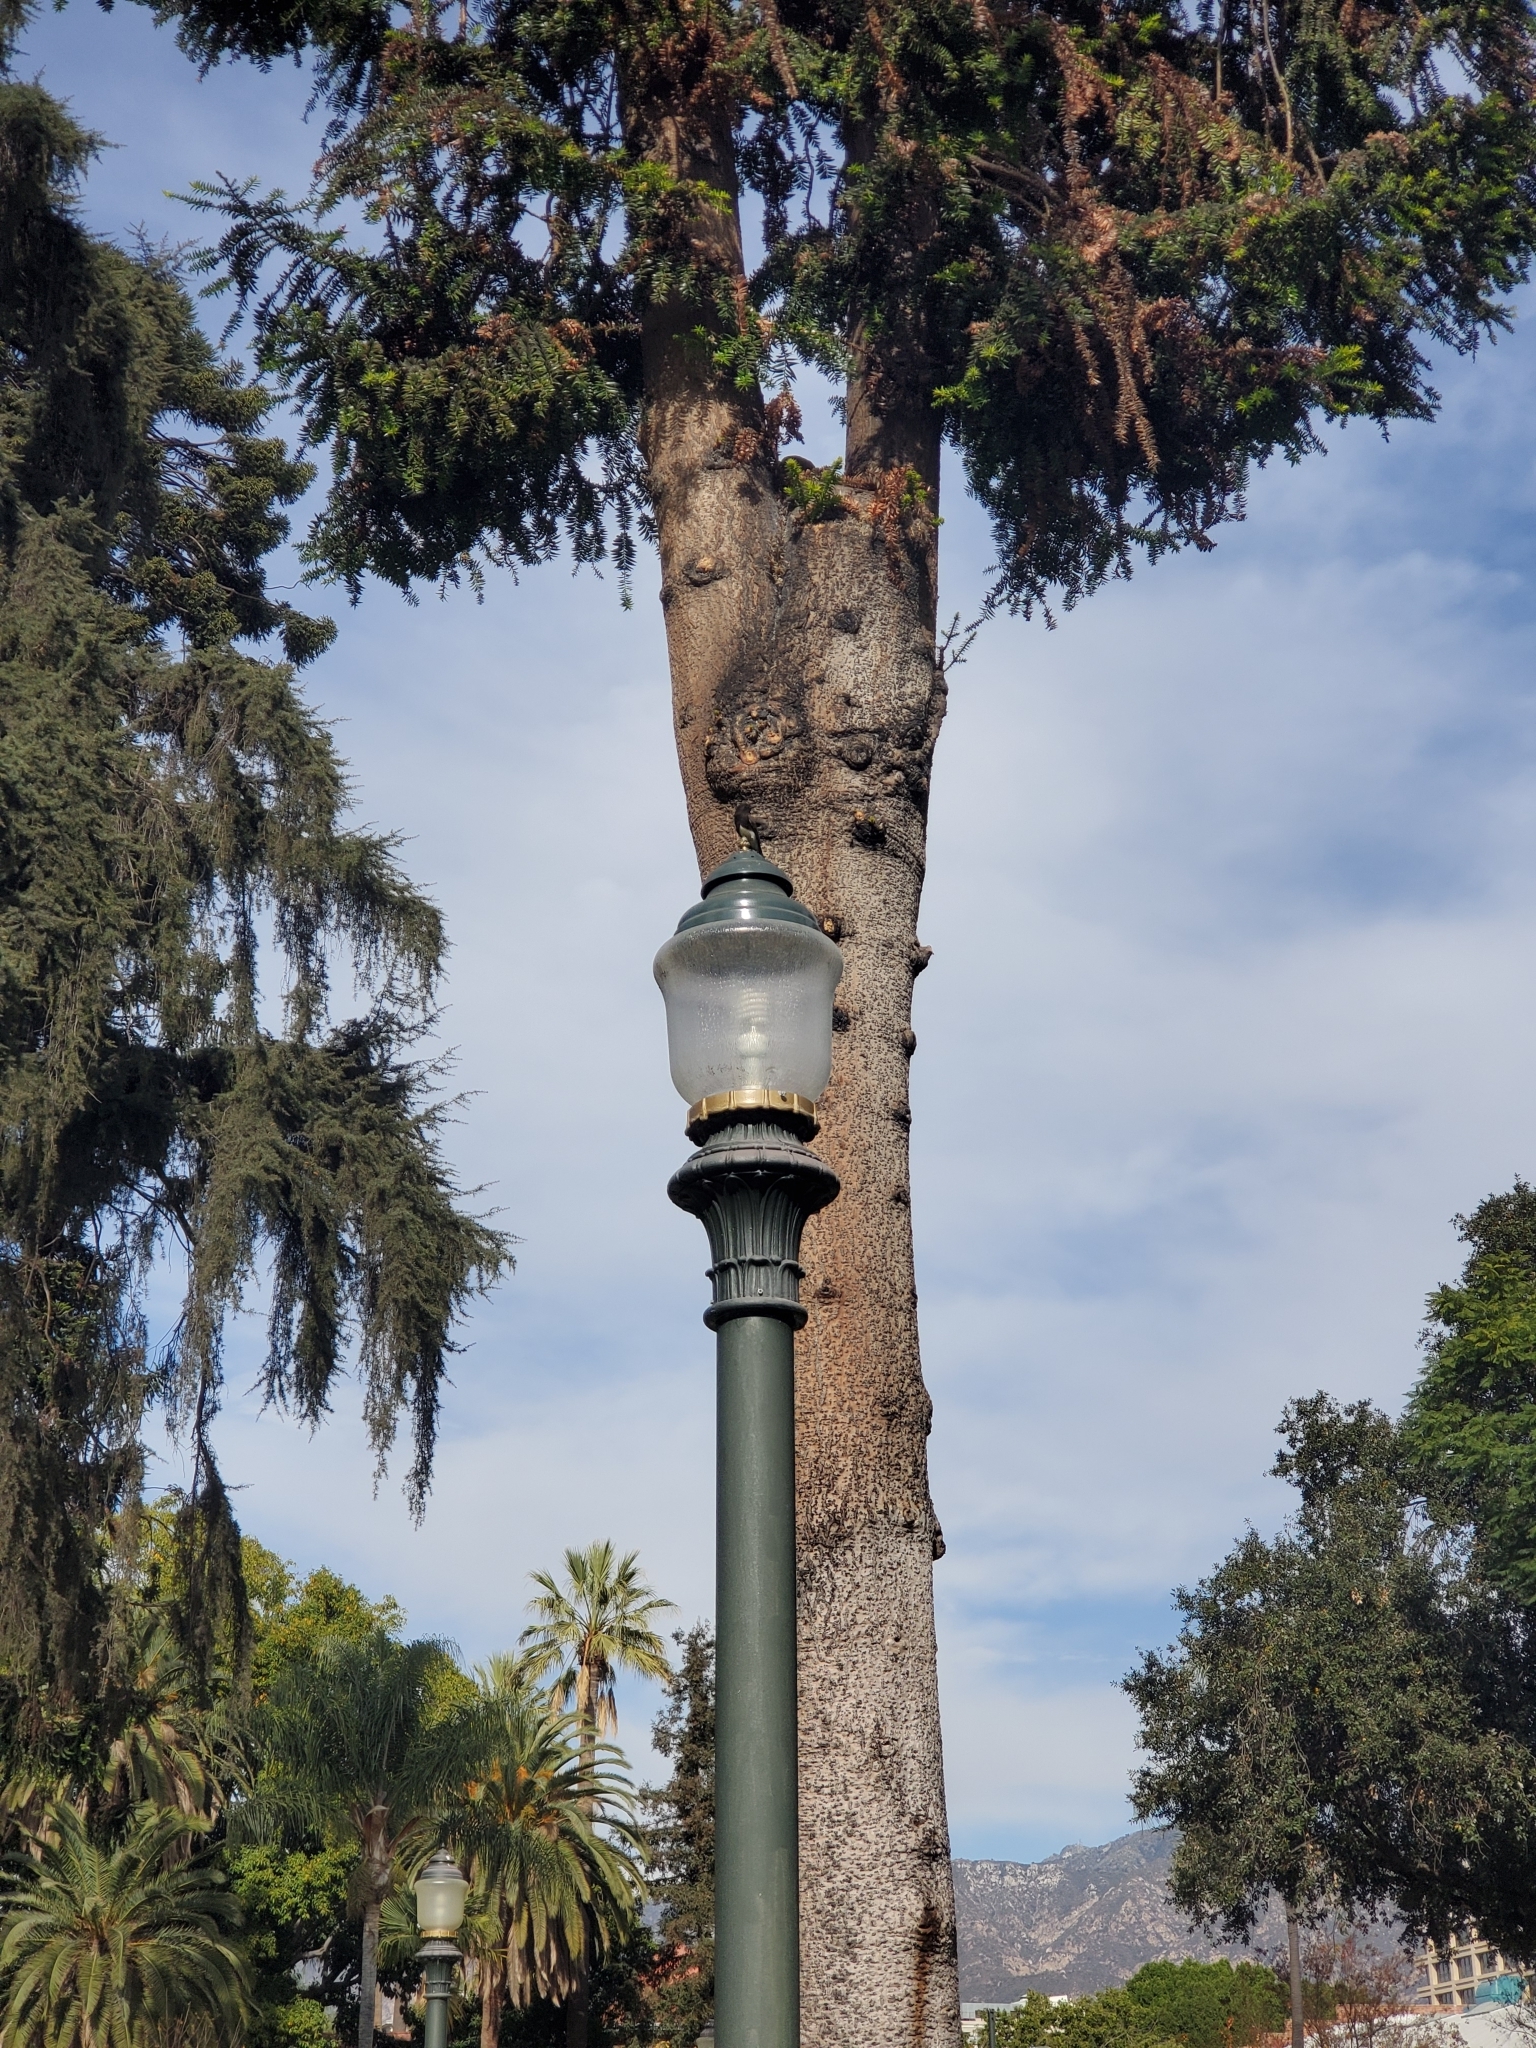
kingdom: Animalia
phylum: Chordata
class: Aves
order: Passeriformes
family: Tyrannidae
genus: Sayornis
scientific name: Sayornis nigricans
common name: Black phoebe
